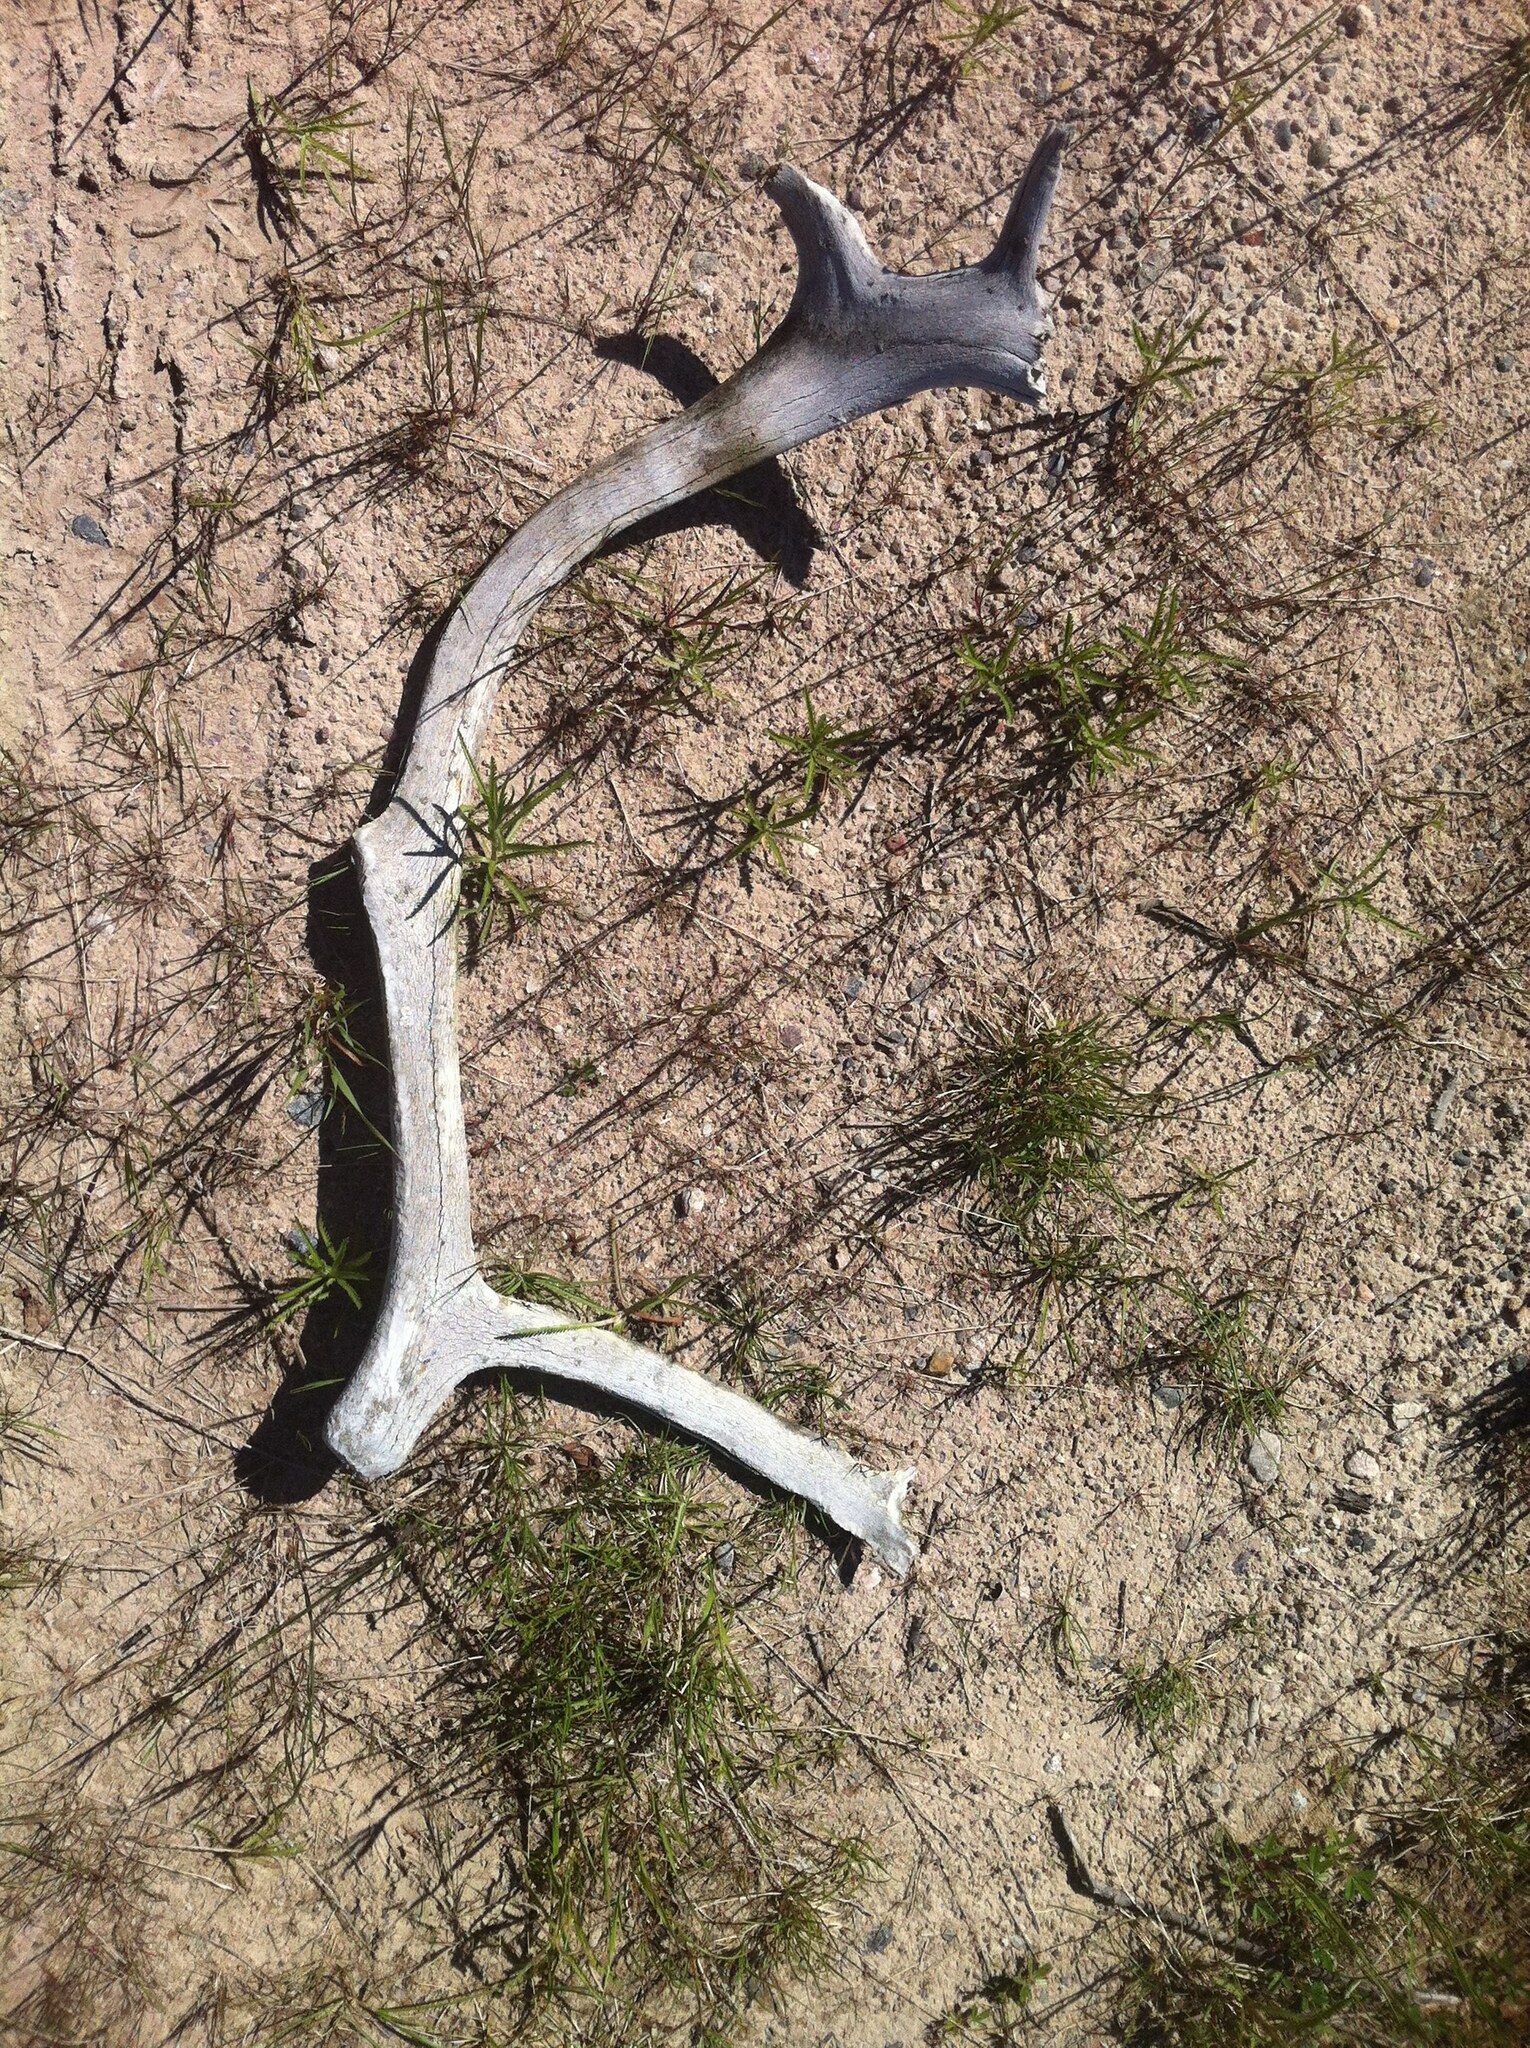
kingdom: Animalia
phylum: Chordata
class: Mammalia
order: Artiodactyla
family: Cervidae
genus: Rangifer
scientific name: Rangifer tarandus
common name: Reindeer
